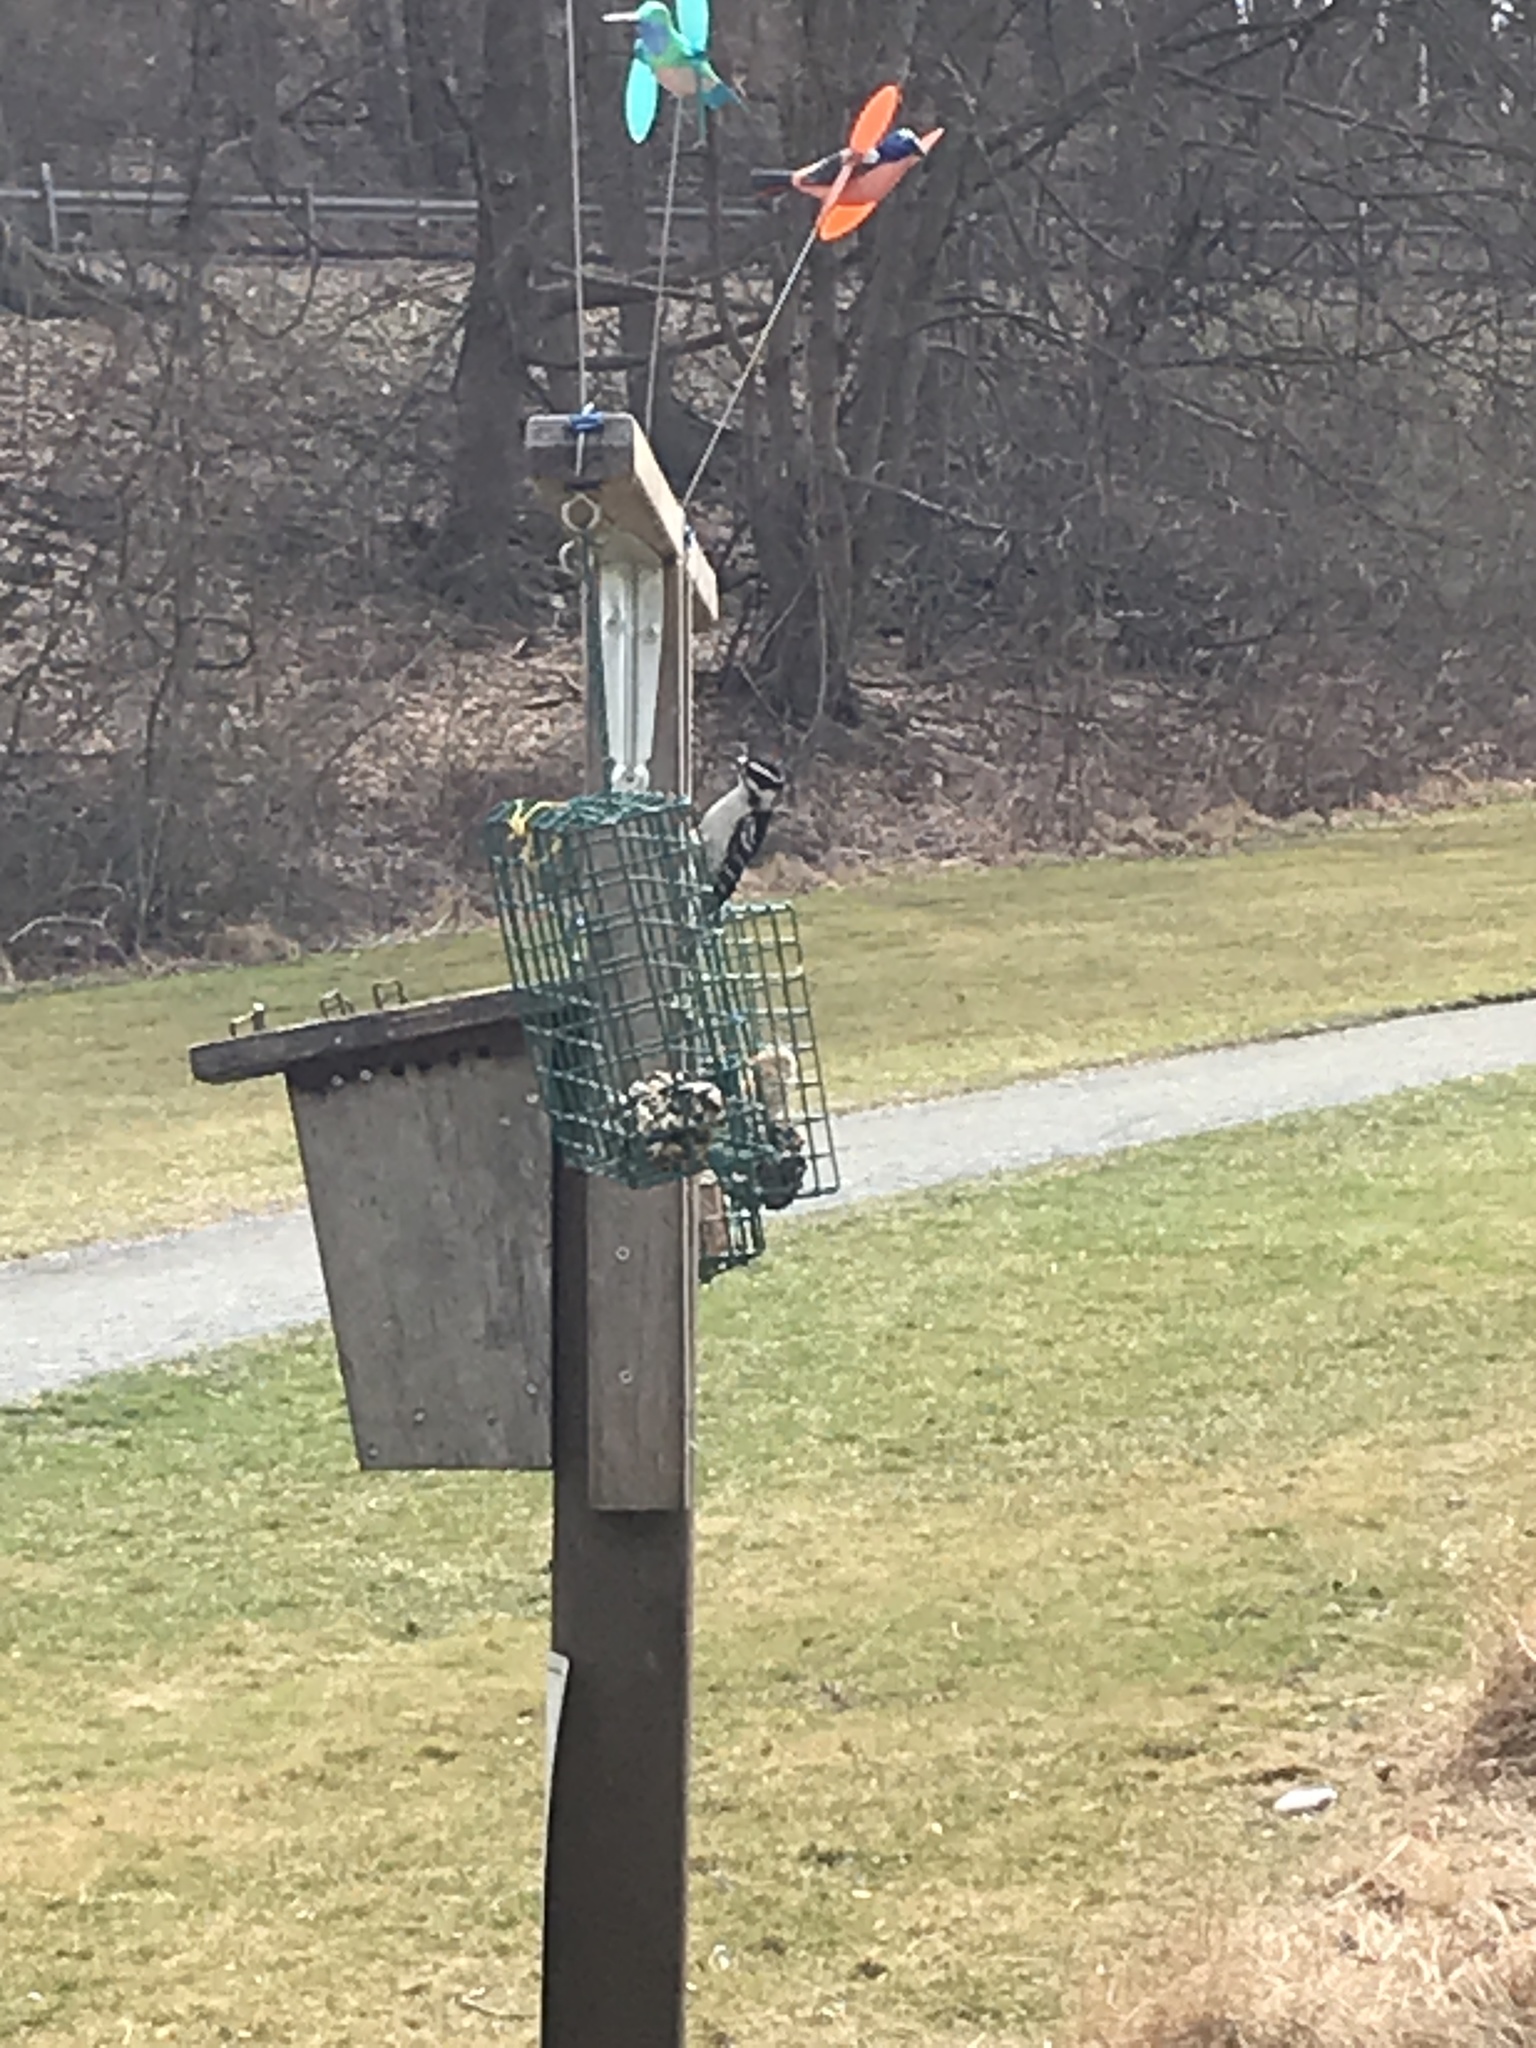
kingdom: Animalia
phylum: Chordata
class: Aves
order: Piciformes
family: Picidae
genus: Dryobates
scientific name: Dryobates pubescens
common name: Downy woodpecker
